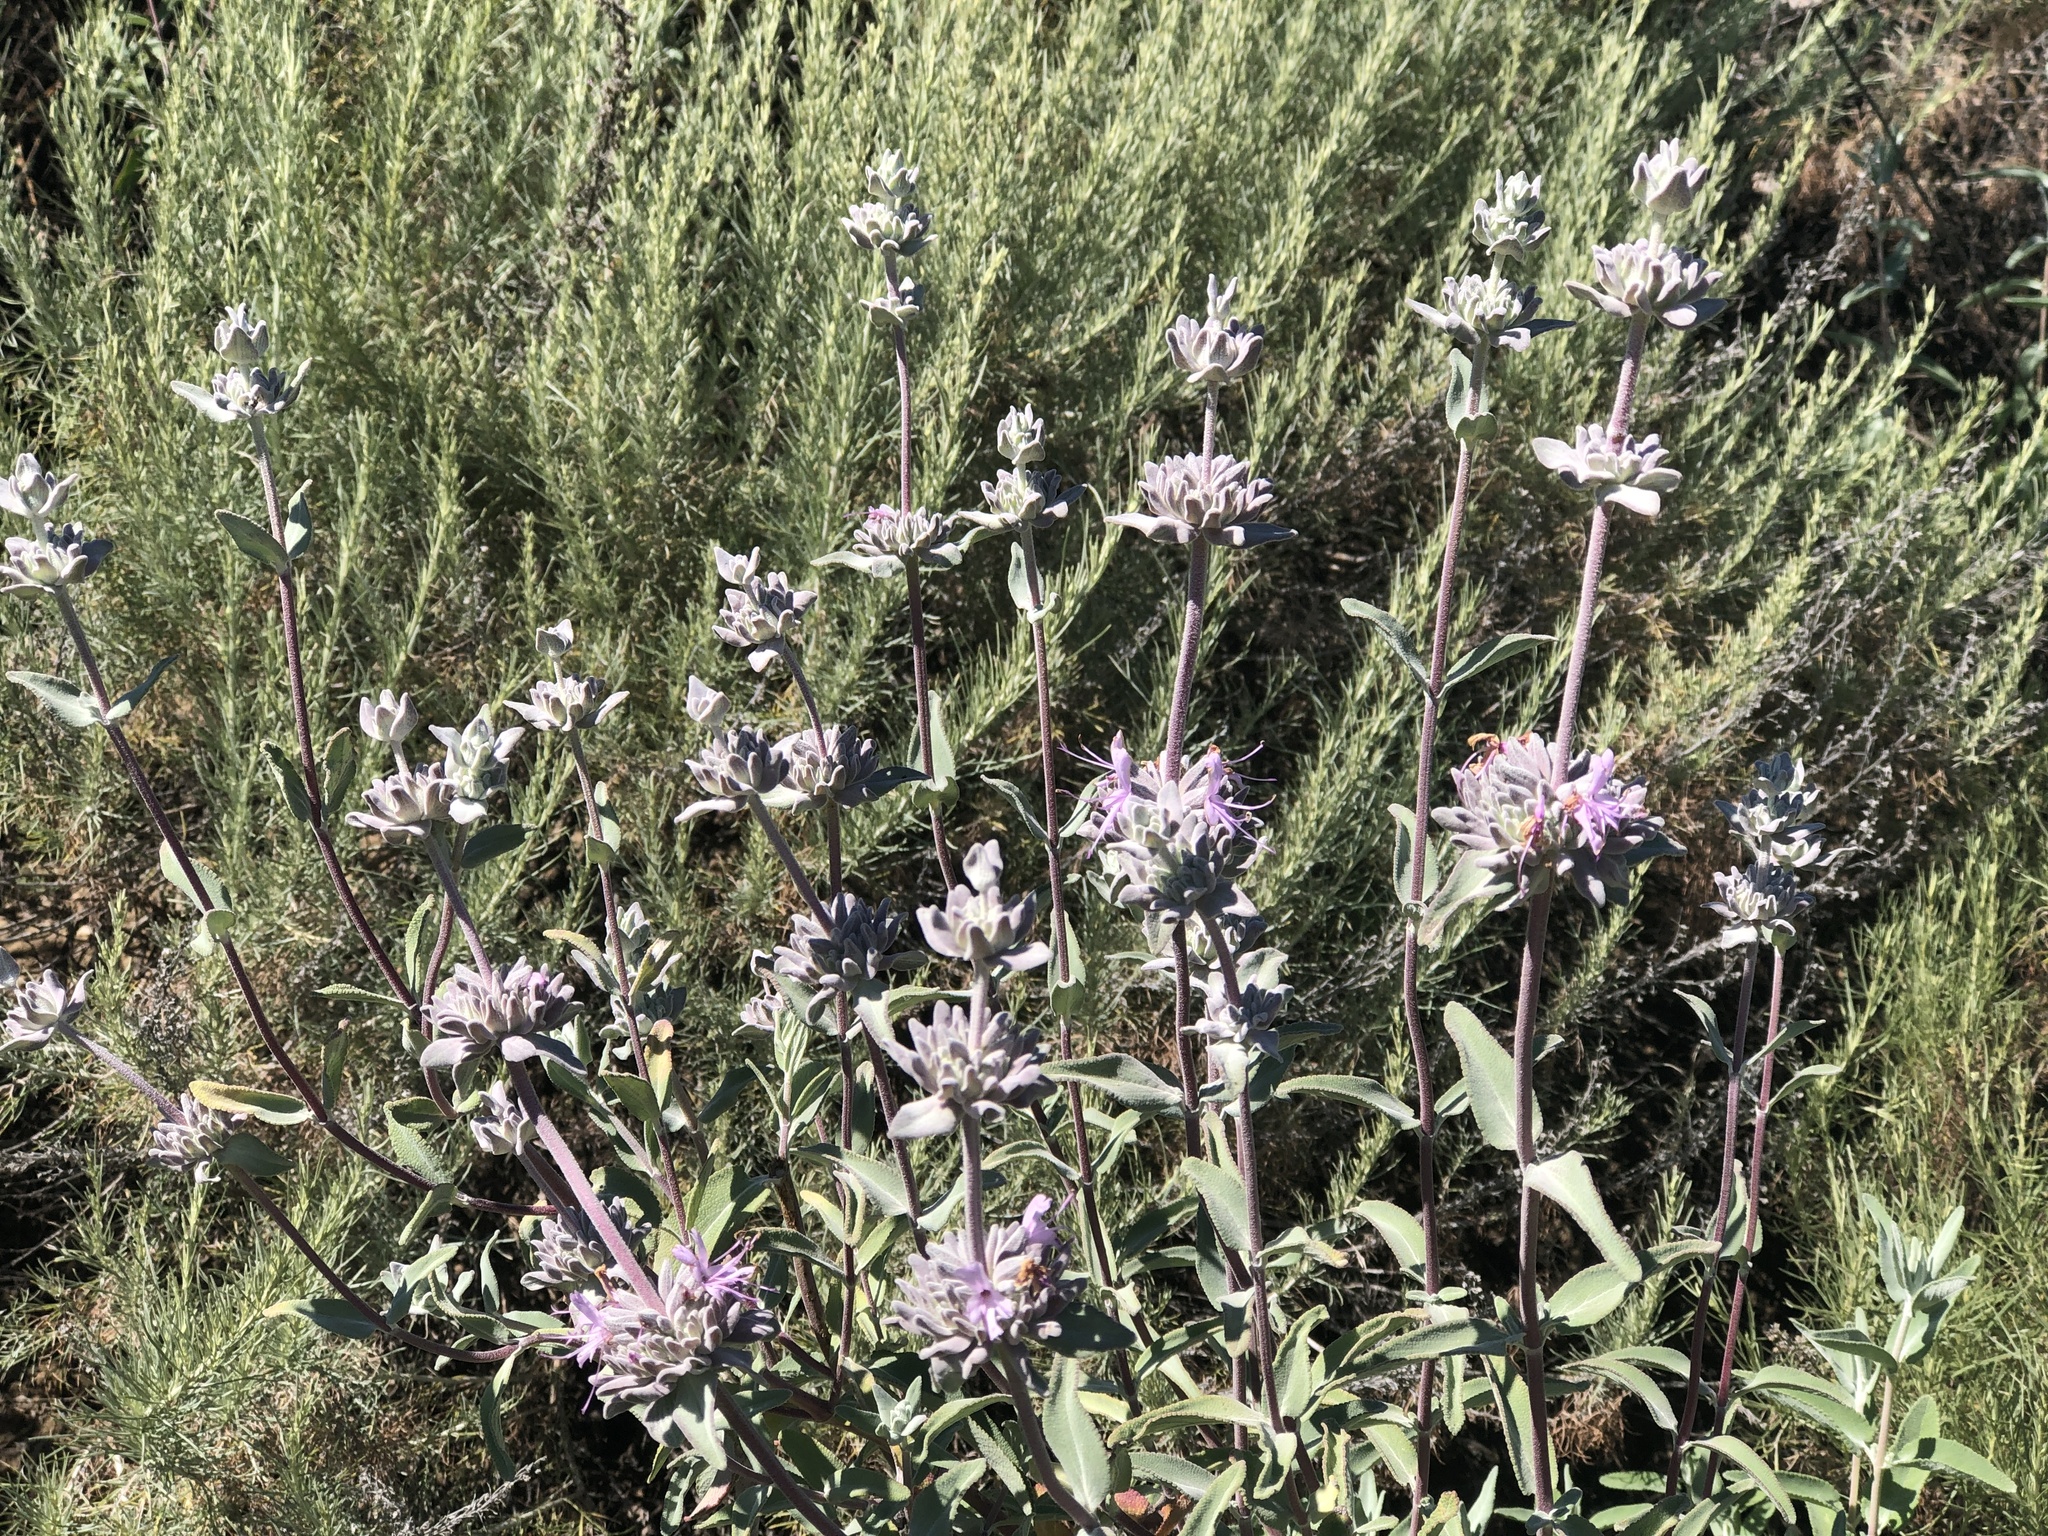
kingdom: Plantae
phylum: Tracheophyta
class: Magnoliopsida
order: Lamiales
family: Lamiaceae
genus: Salvia
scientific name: Salvia leucophylla
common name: Purple sage
